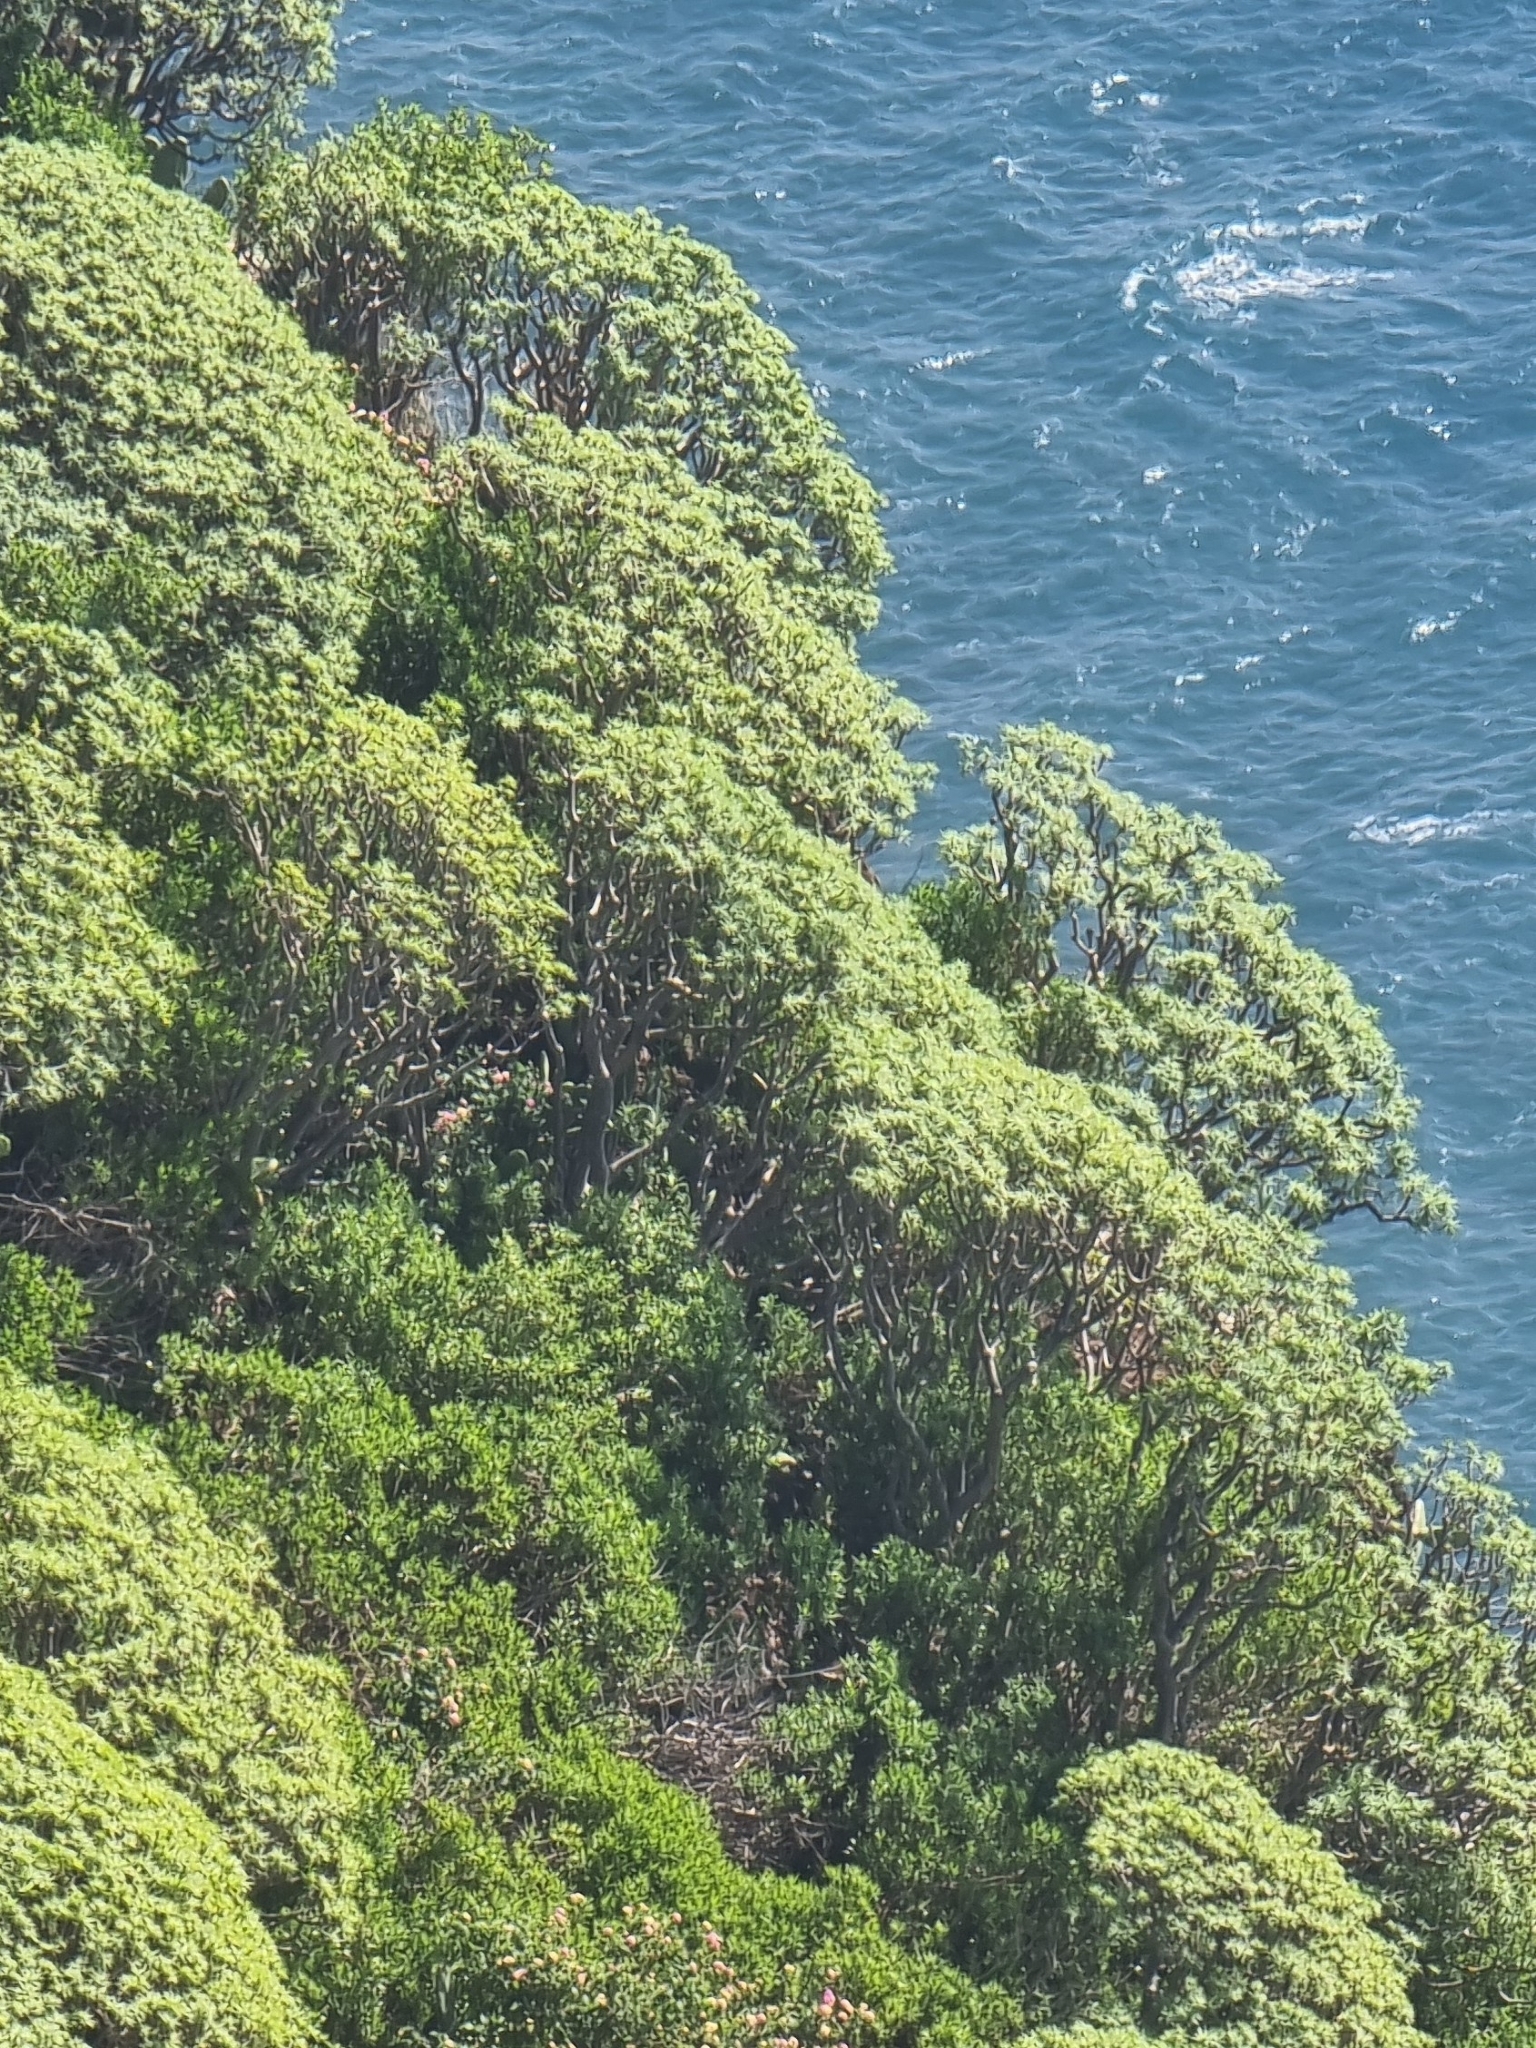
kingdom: Plantae
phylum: Tracheophyta
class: Magnoliopsida
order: Malpighiales
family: Euphorbiaceae
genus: Euphorbia
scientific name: Euphorbia piscatoria
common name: Fish-stunning spurge
